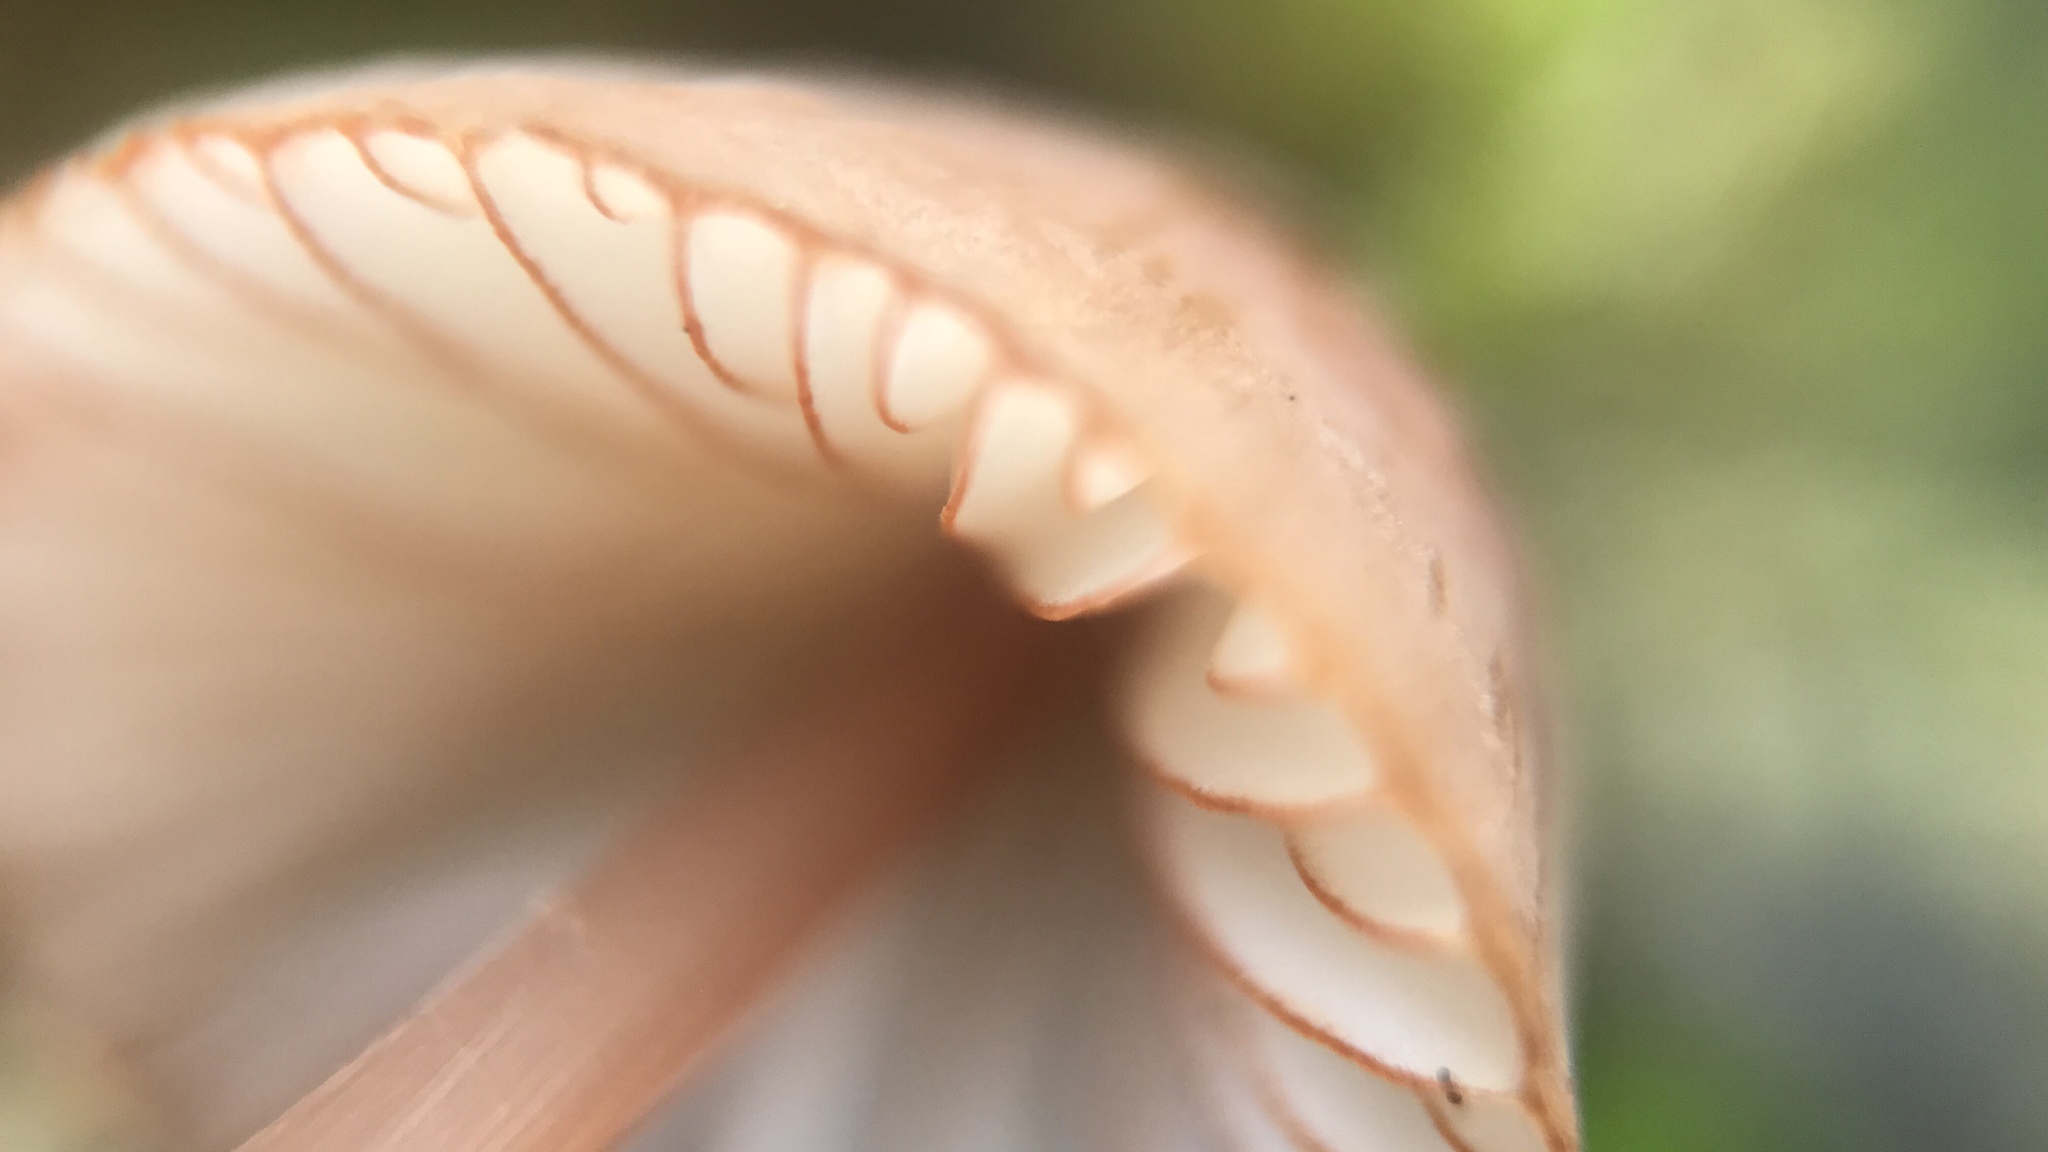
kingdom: Fungi
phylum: Basidiomycota
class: Agaricomycetes
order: Agaricales
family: Mycenaceae
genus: Mycena
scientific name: Mycena
